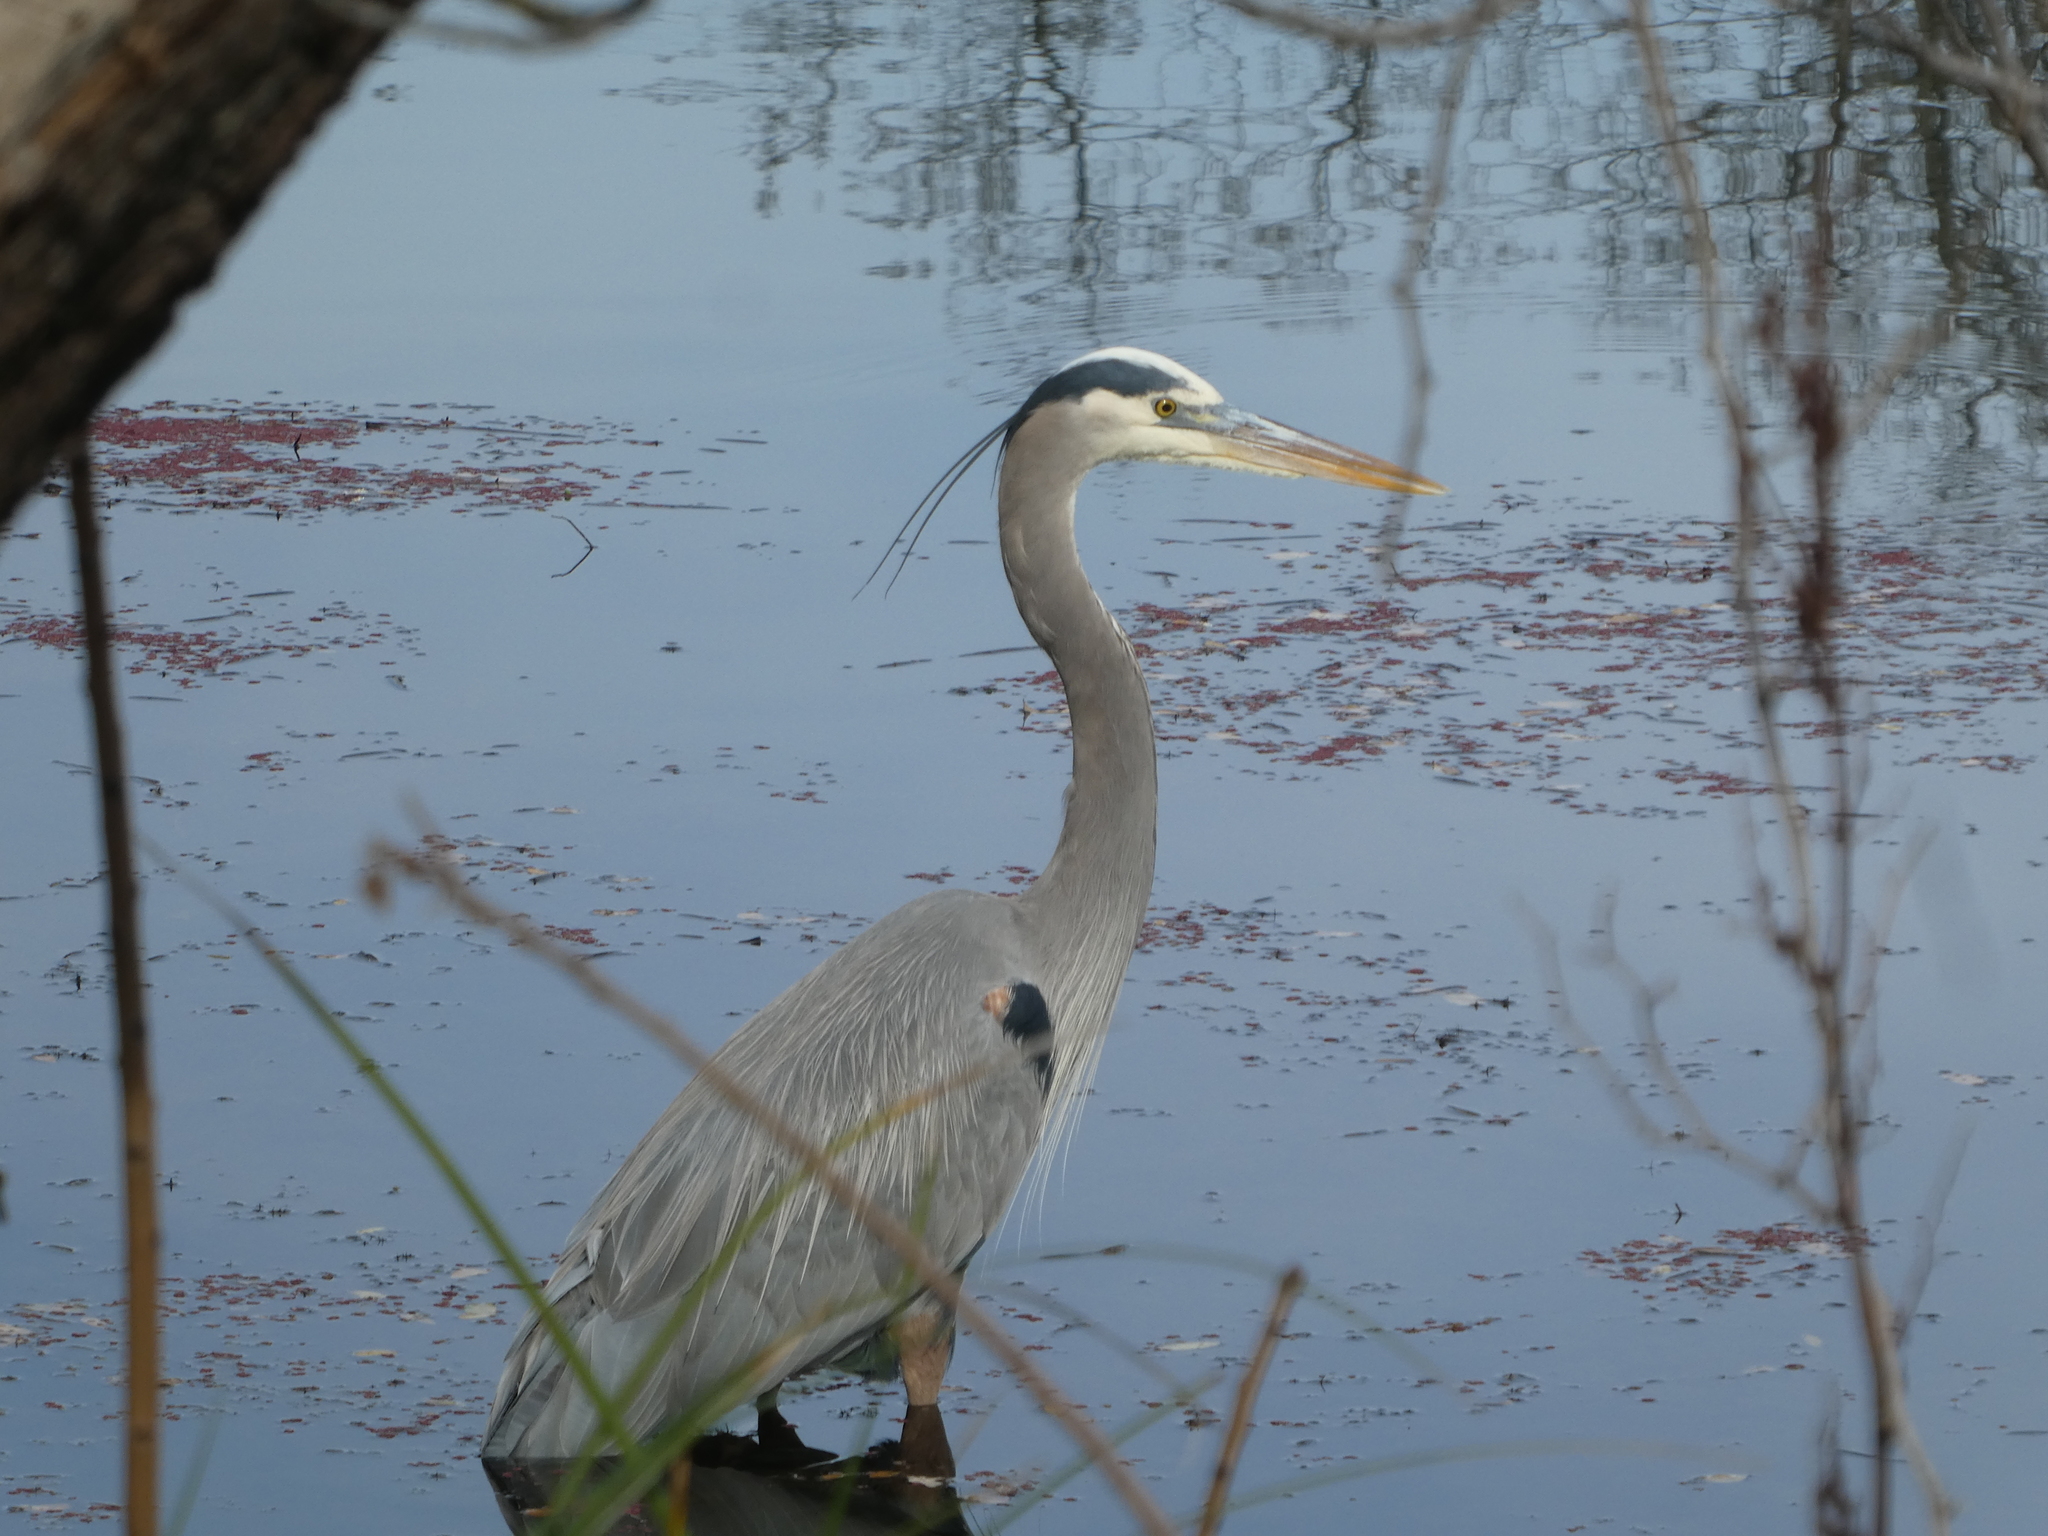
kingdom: Animalia
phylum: Chordata
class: Aves
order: Pelecaniformes
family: Ardeidae
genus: Ardea
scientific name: Ardea herodias
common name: Great blue heron
